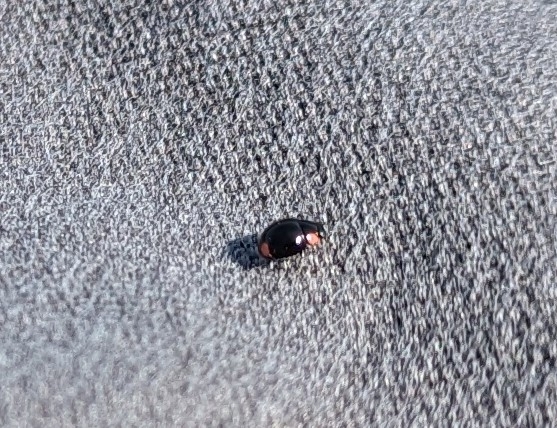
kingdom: Animalia
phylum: Arthropoda
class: Insecta
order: Coleoptera
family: Coccinellidae
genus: Hyperaspis
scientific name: Hyperaspis bigeminata
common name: Bigeminate sigil lady beetle
